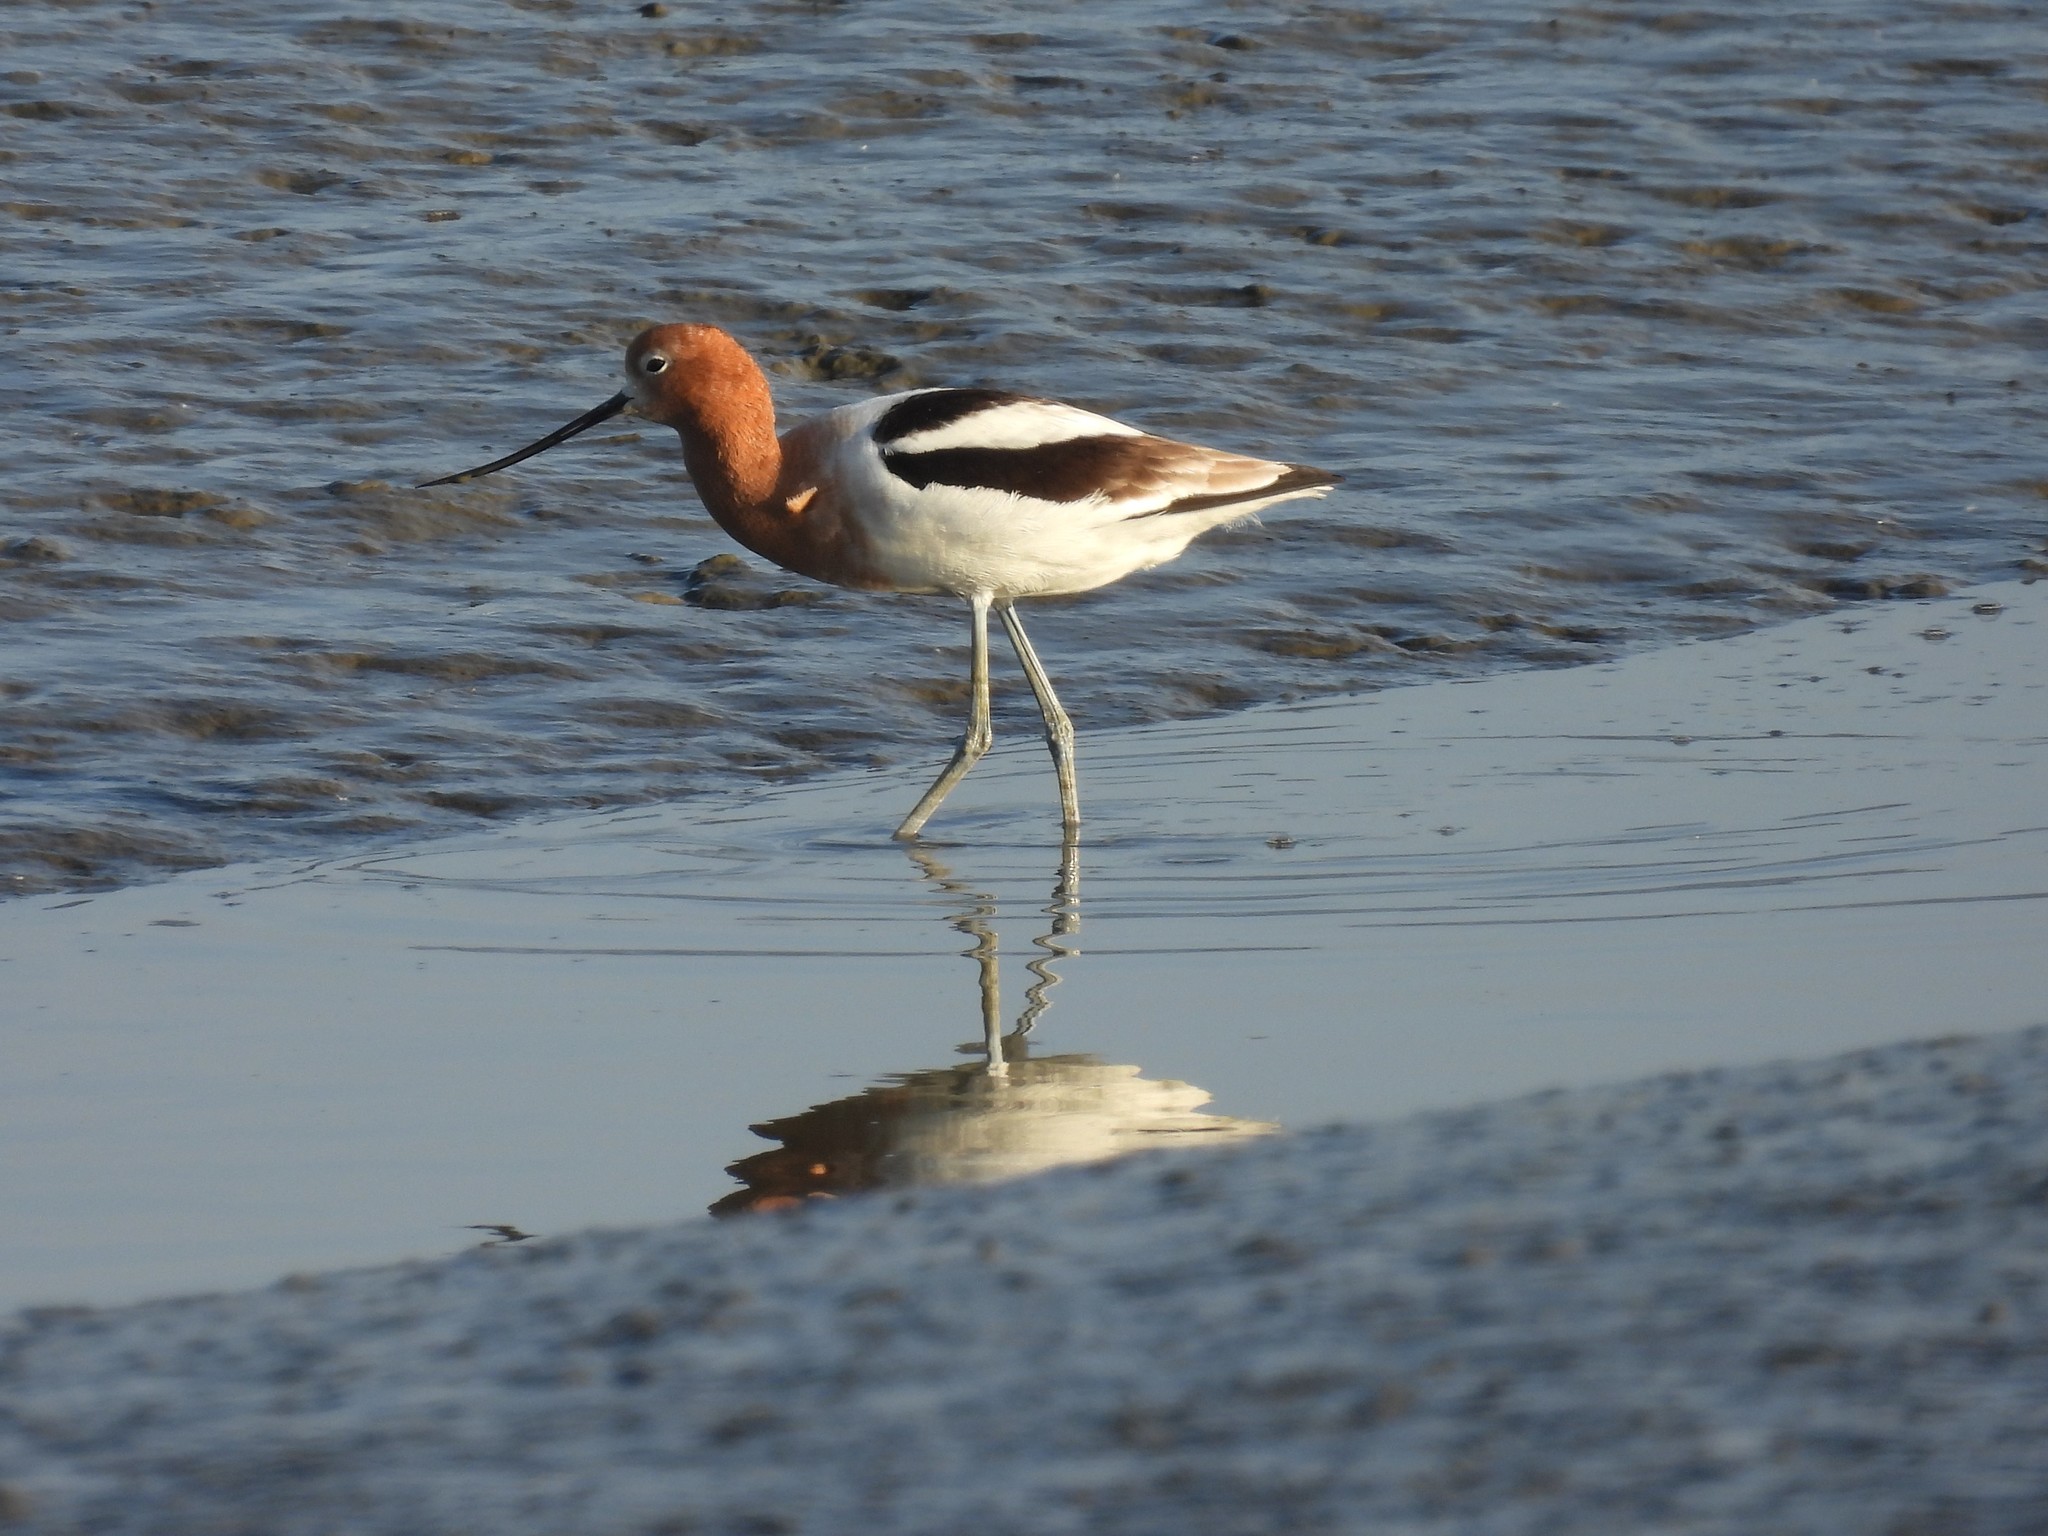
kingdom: Animalia
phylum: Chordata
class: Aves
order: Charadriiformes
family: Recurvirostridae
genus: Recurvirostra
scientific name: Recurvirostra americana
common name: American avocet
